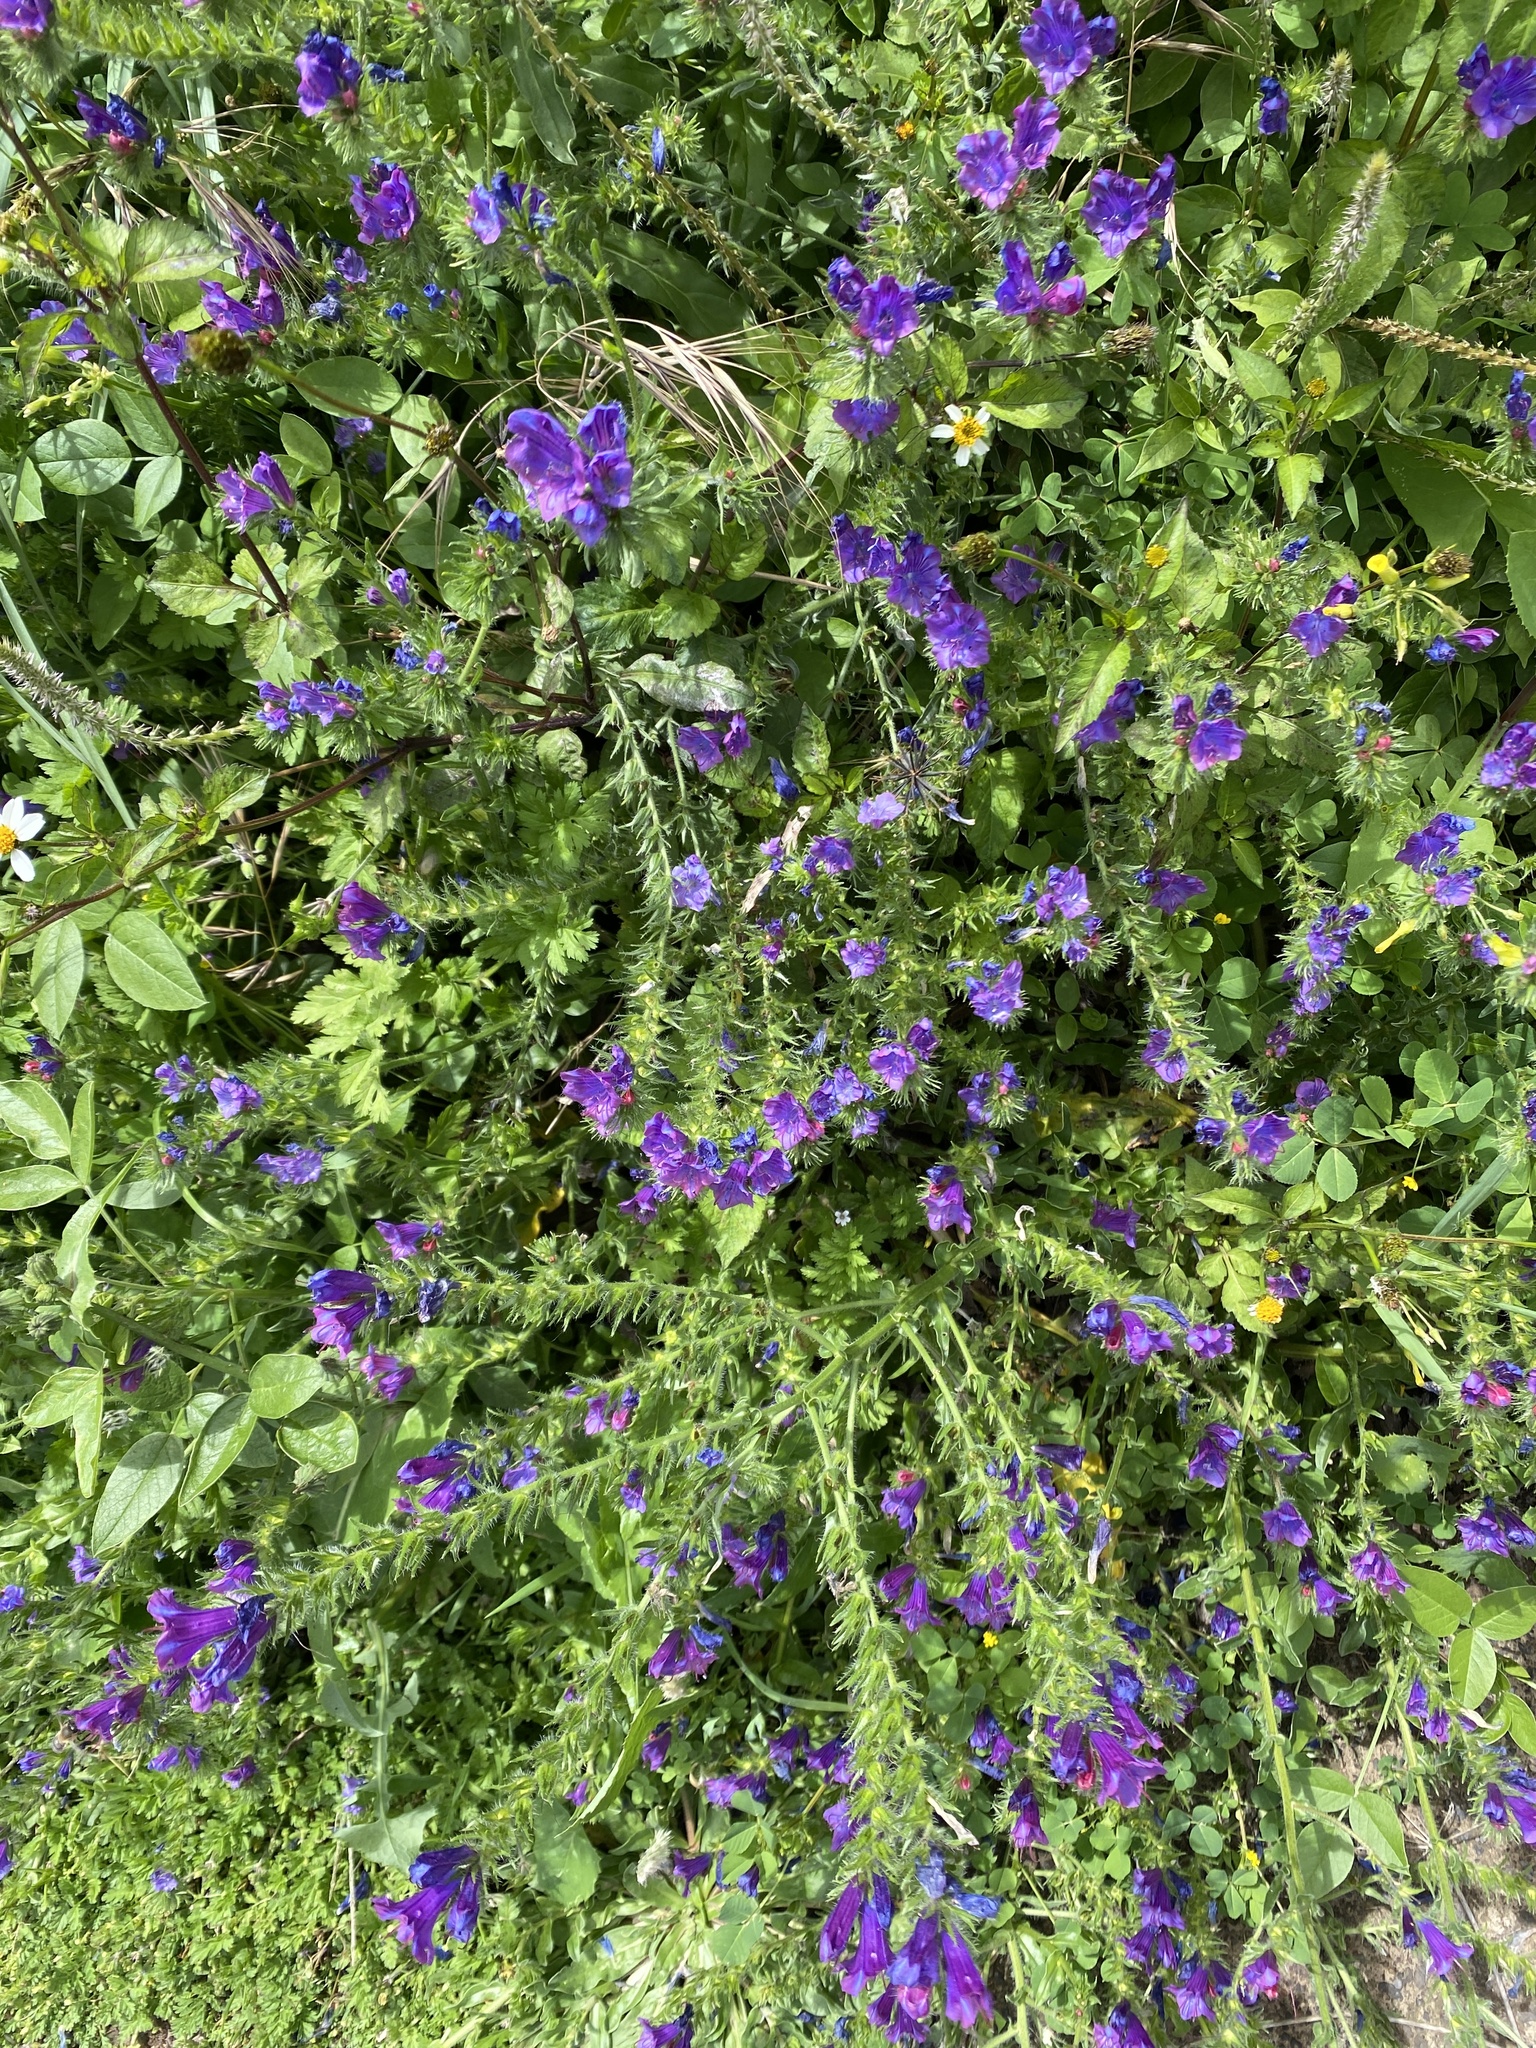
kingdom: Plantae
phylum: Tracheophyta
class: Magnoliopsida
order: Boraginales
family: Boraginaceae
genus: Echium
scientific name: Echium plantagineum
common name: Purple viper's-bugloss
